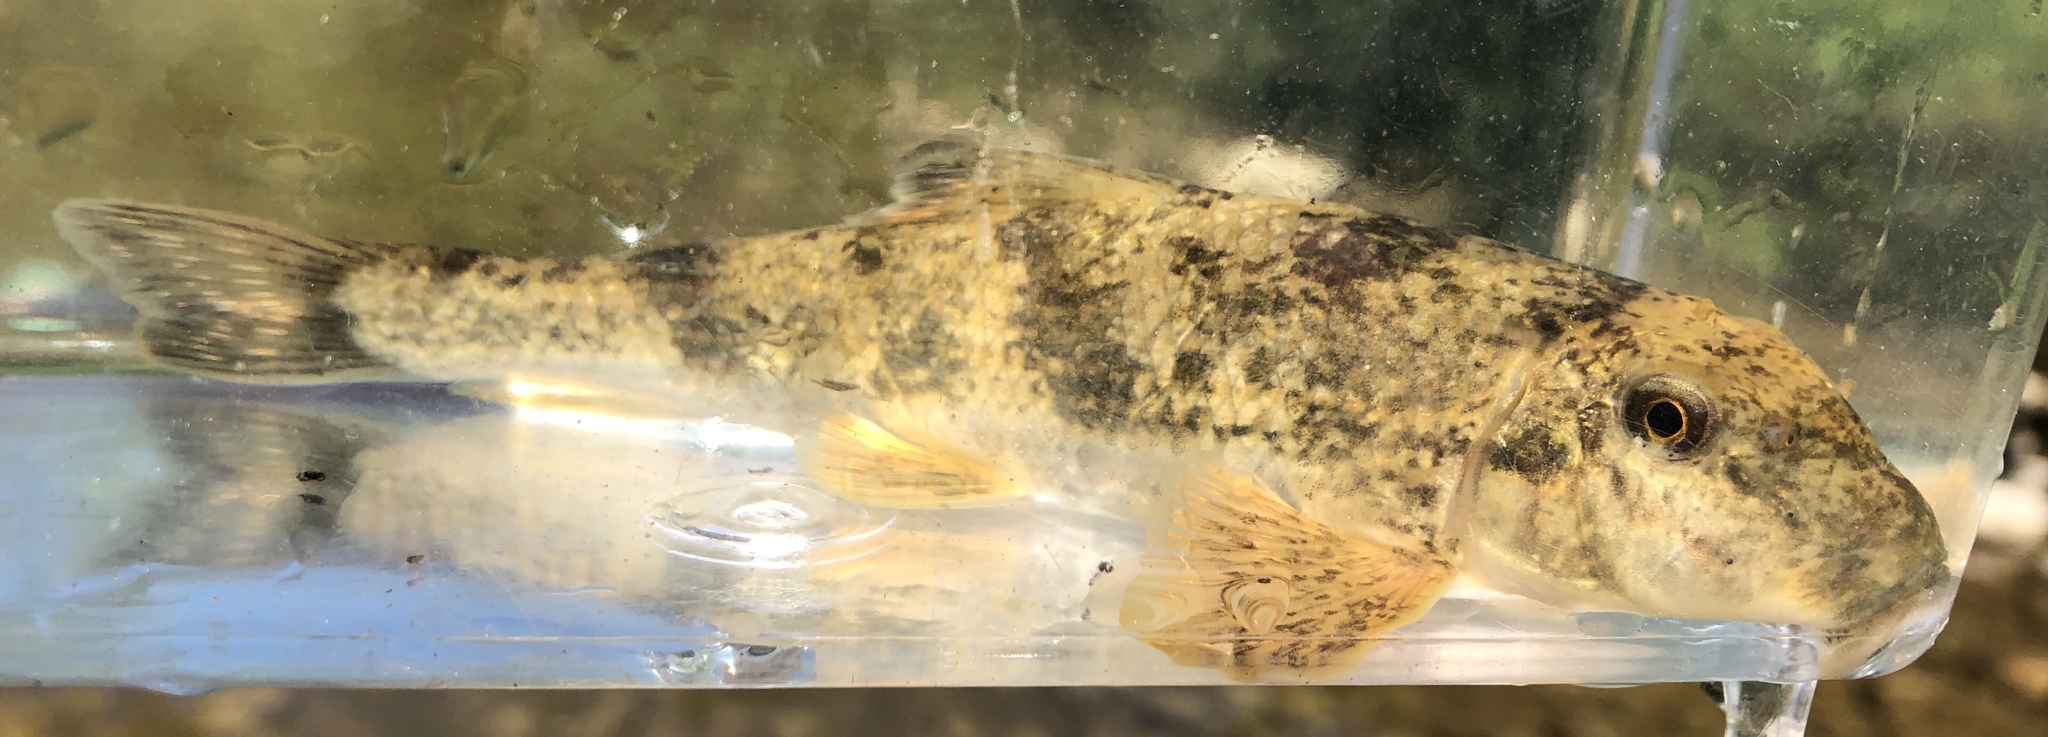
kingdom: Animalia
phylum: Chordata
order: Cypriniformes
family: Catostomidae
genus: Hypentelium
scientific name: Hypentelium nigricans
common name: Northern hog sucker
